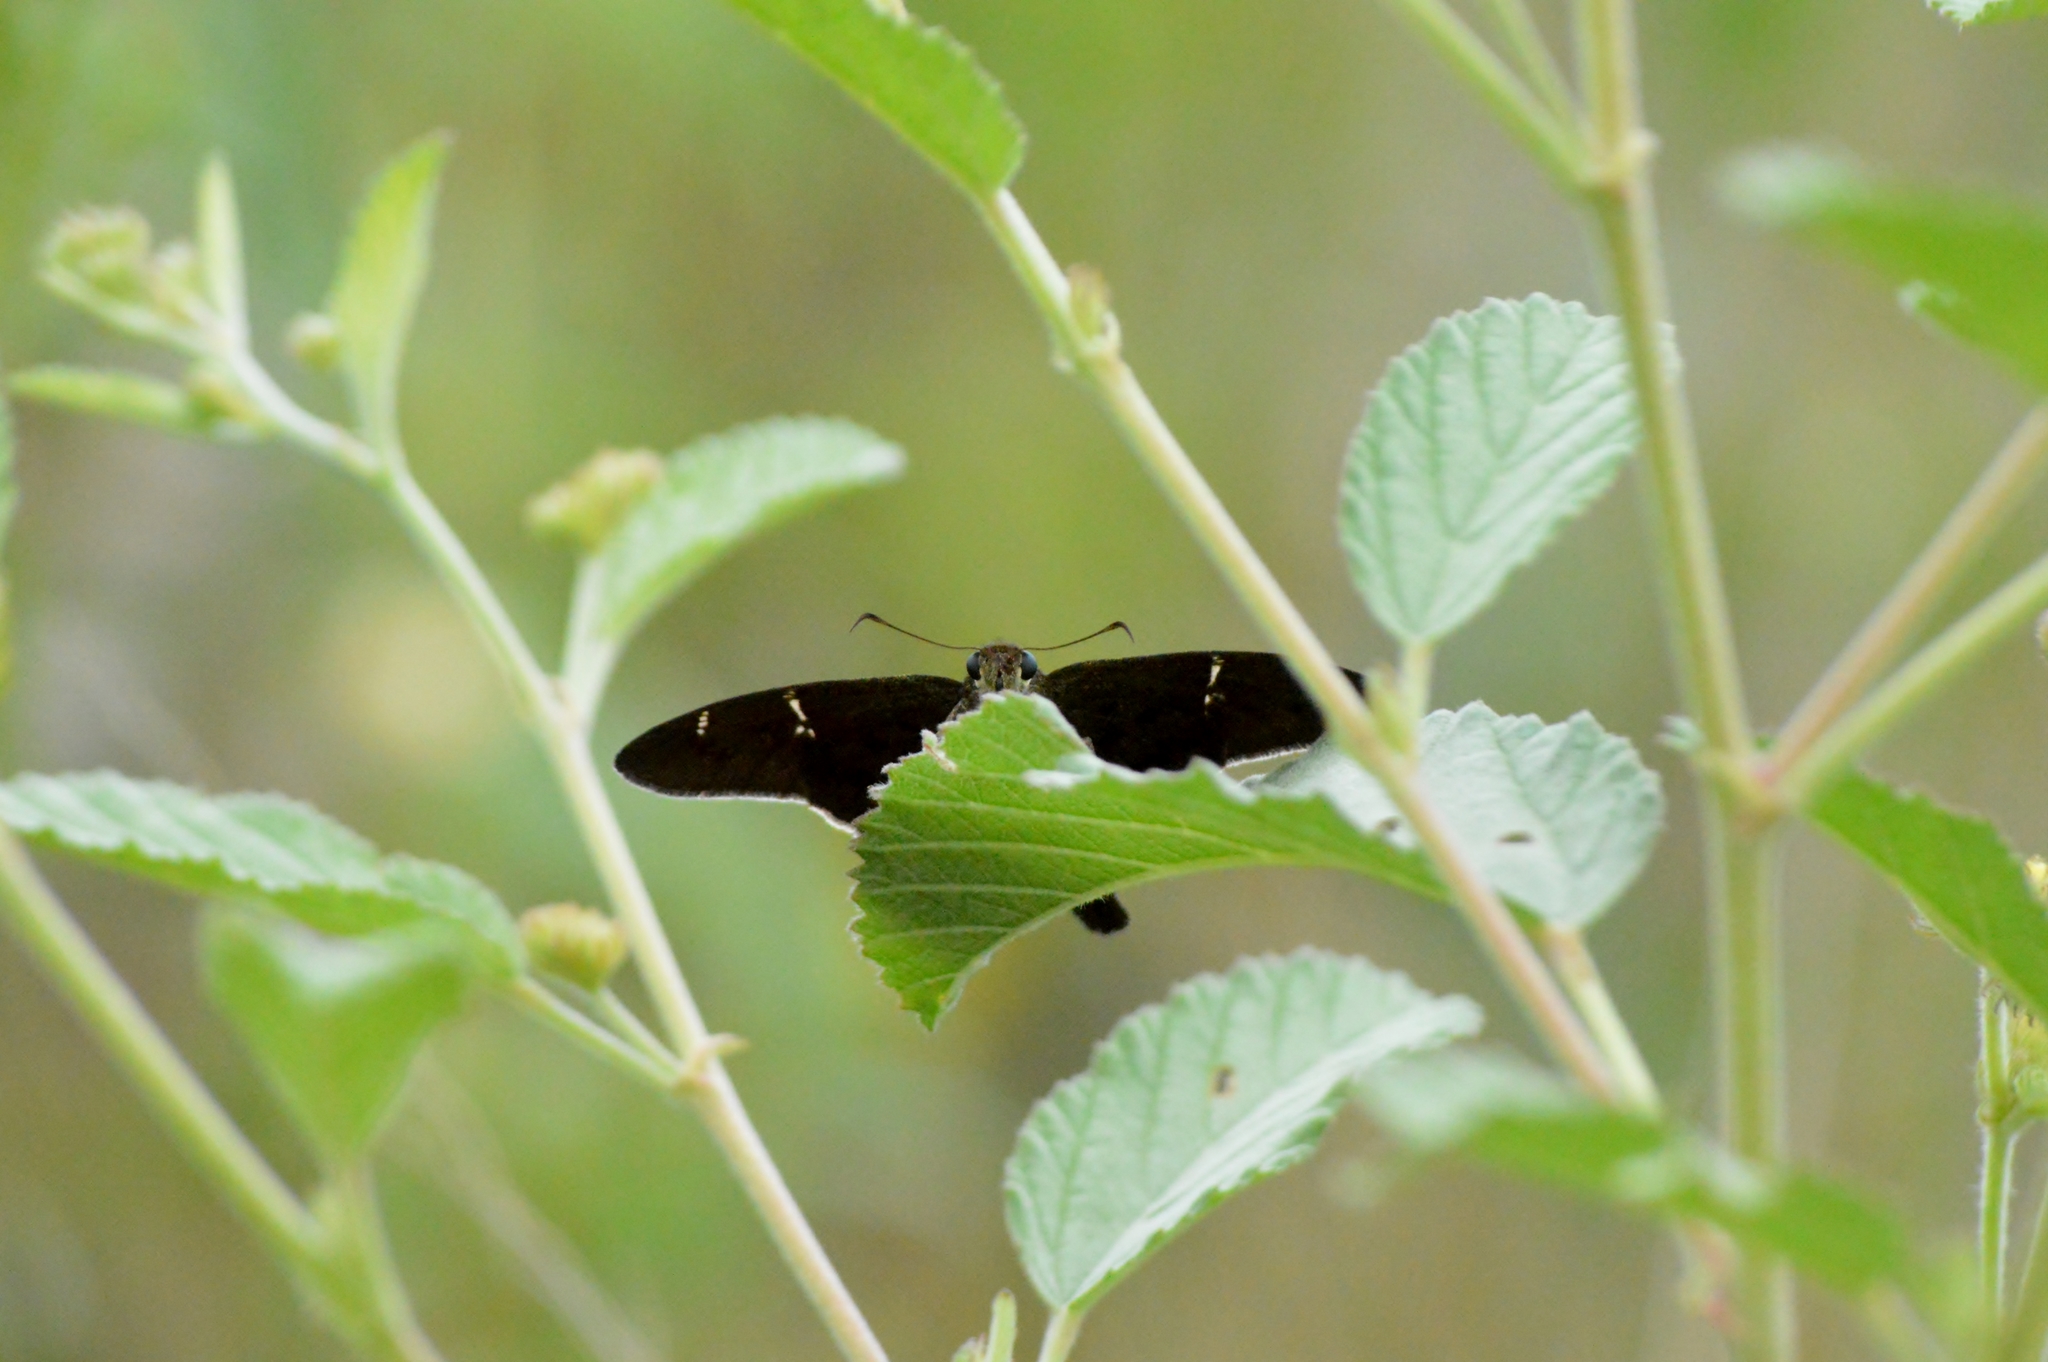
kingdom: Animalia
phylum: Arthropoda
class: Insecta
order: Lepidoptera
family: Hesperiidae
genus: Urbanus
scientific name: Urbanus procne
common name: Brown longtail
